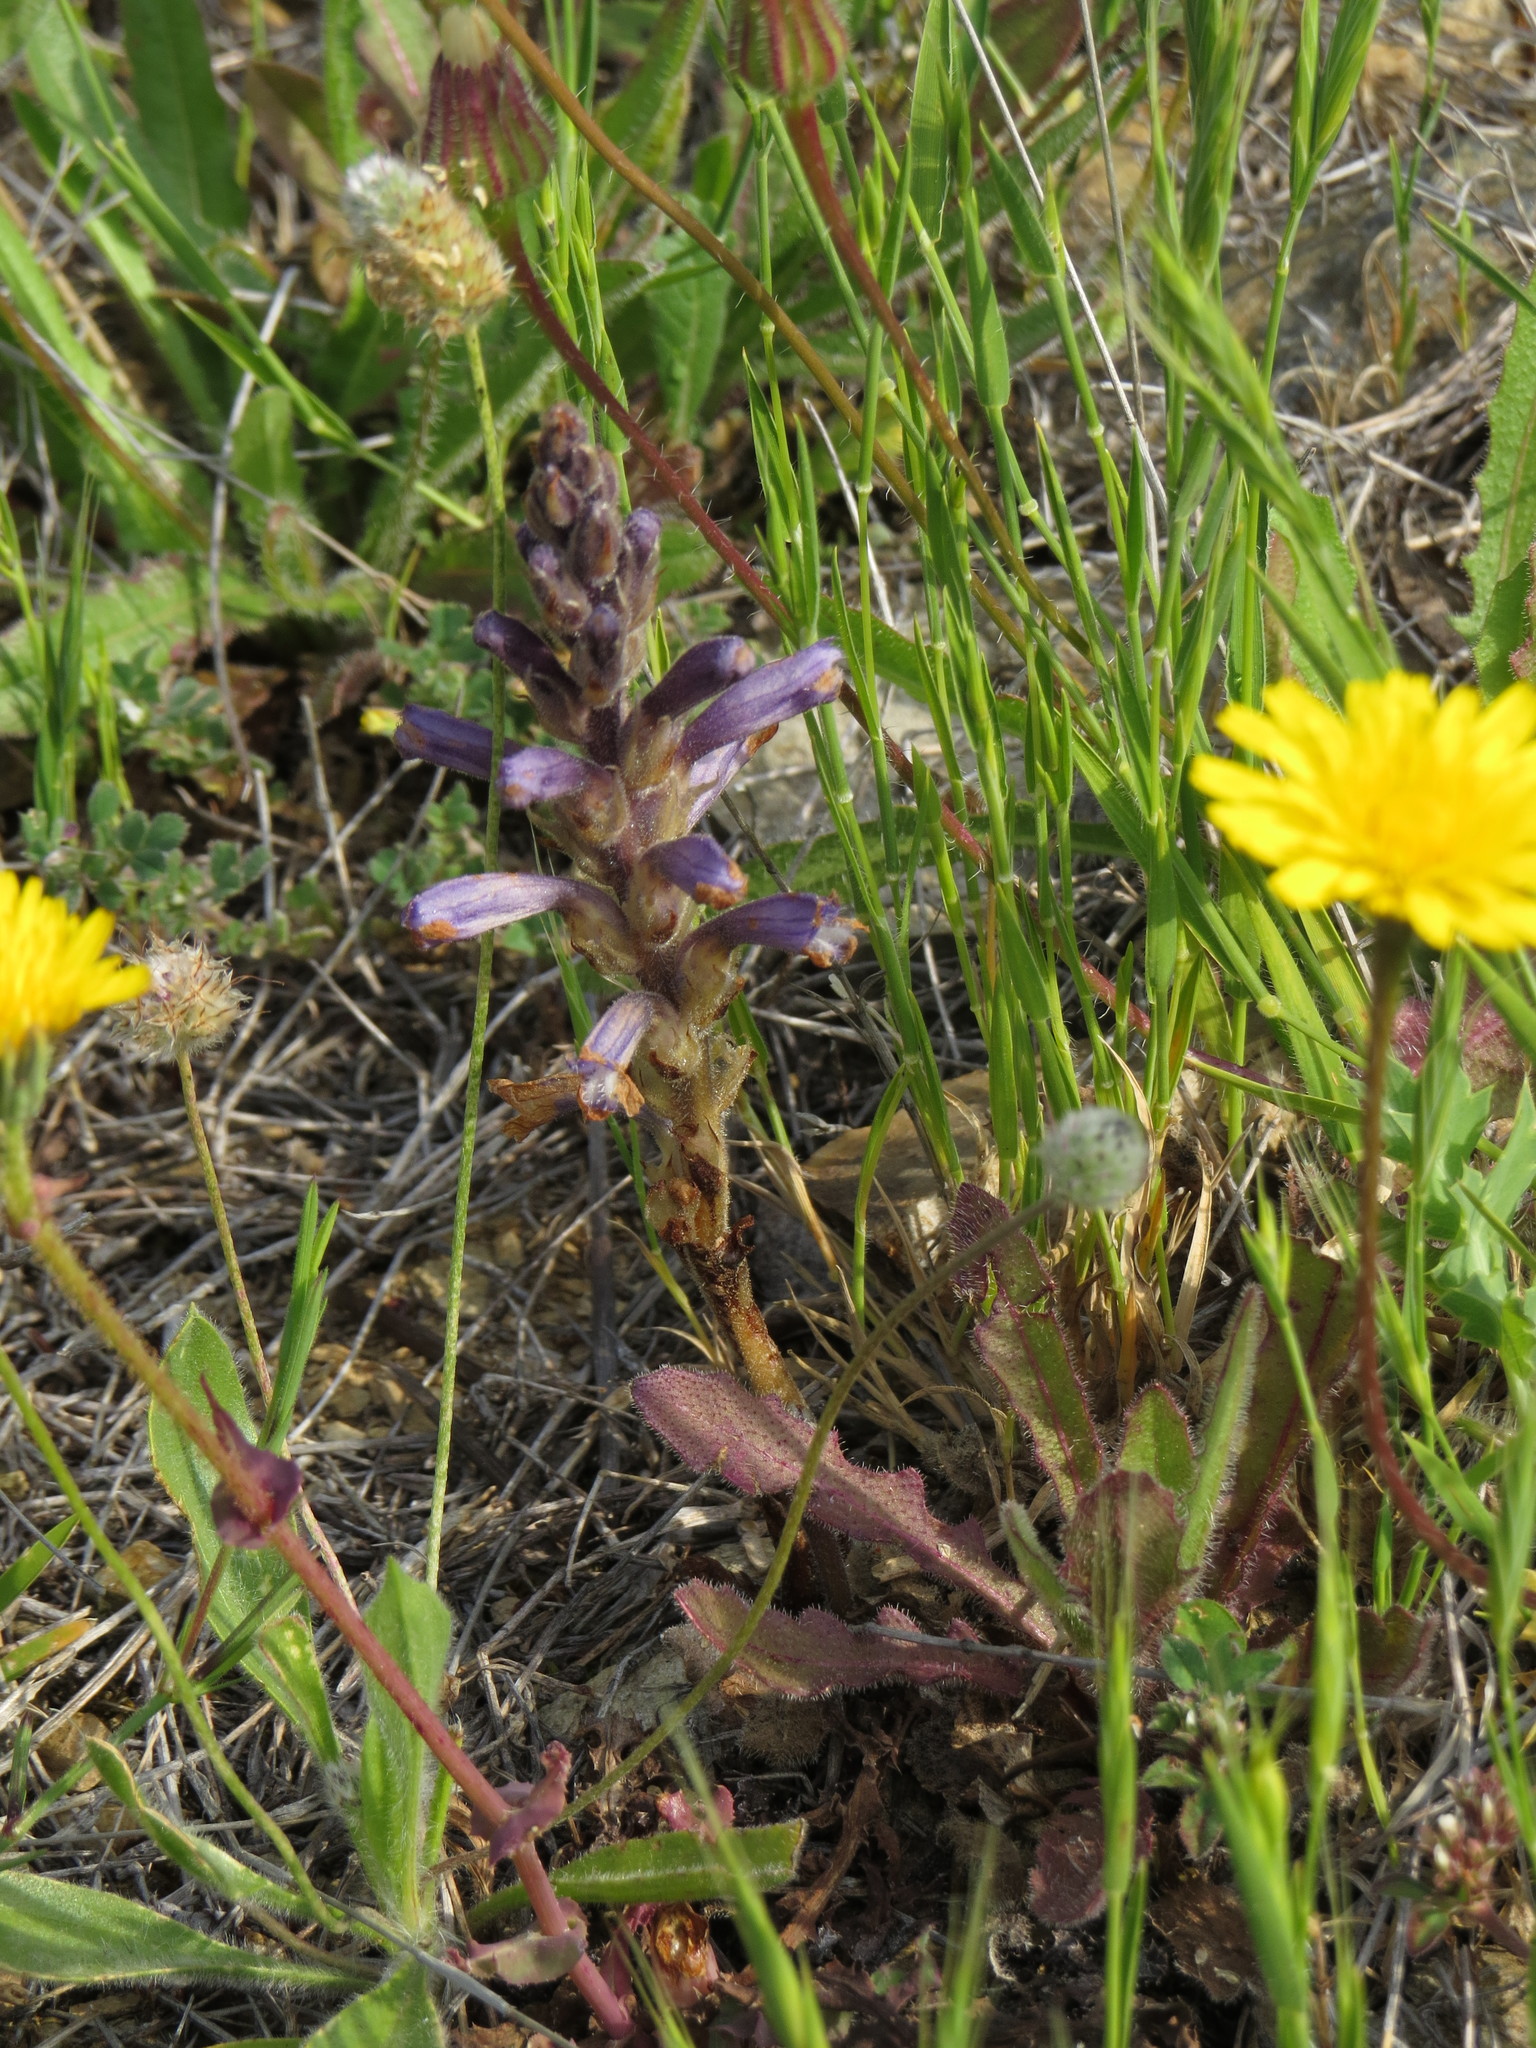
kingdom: Plantae
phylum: Tracheophyta
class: Magnoliopsida
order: Lamiales
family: Orobanchaceae
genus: Phelipanche
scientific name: Phelipanche mutelii
